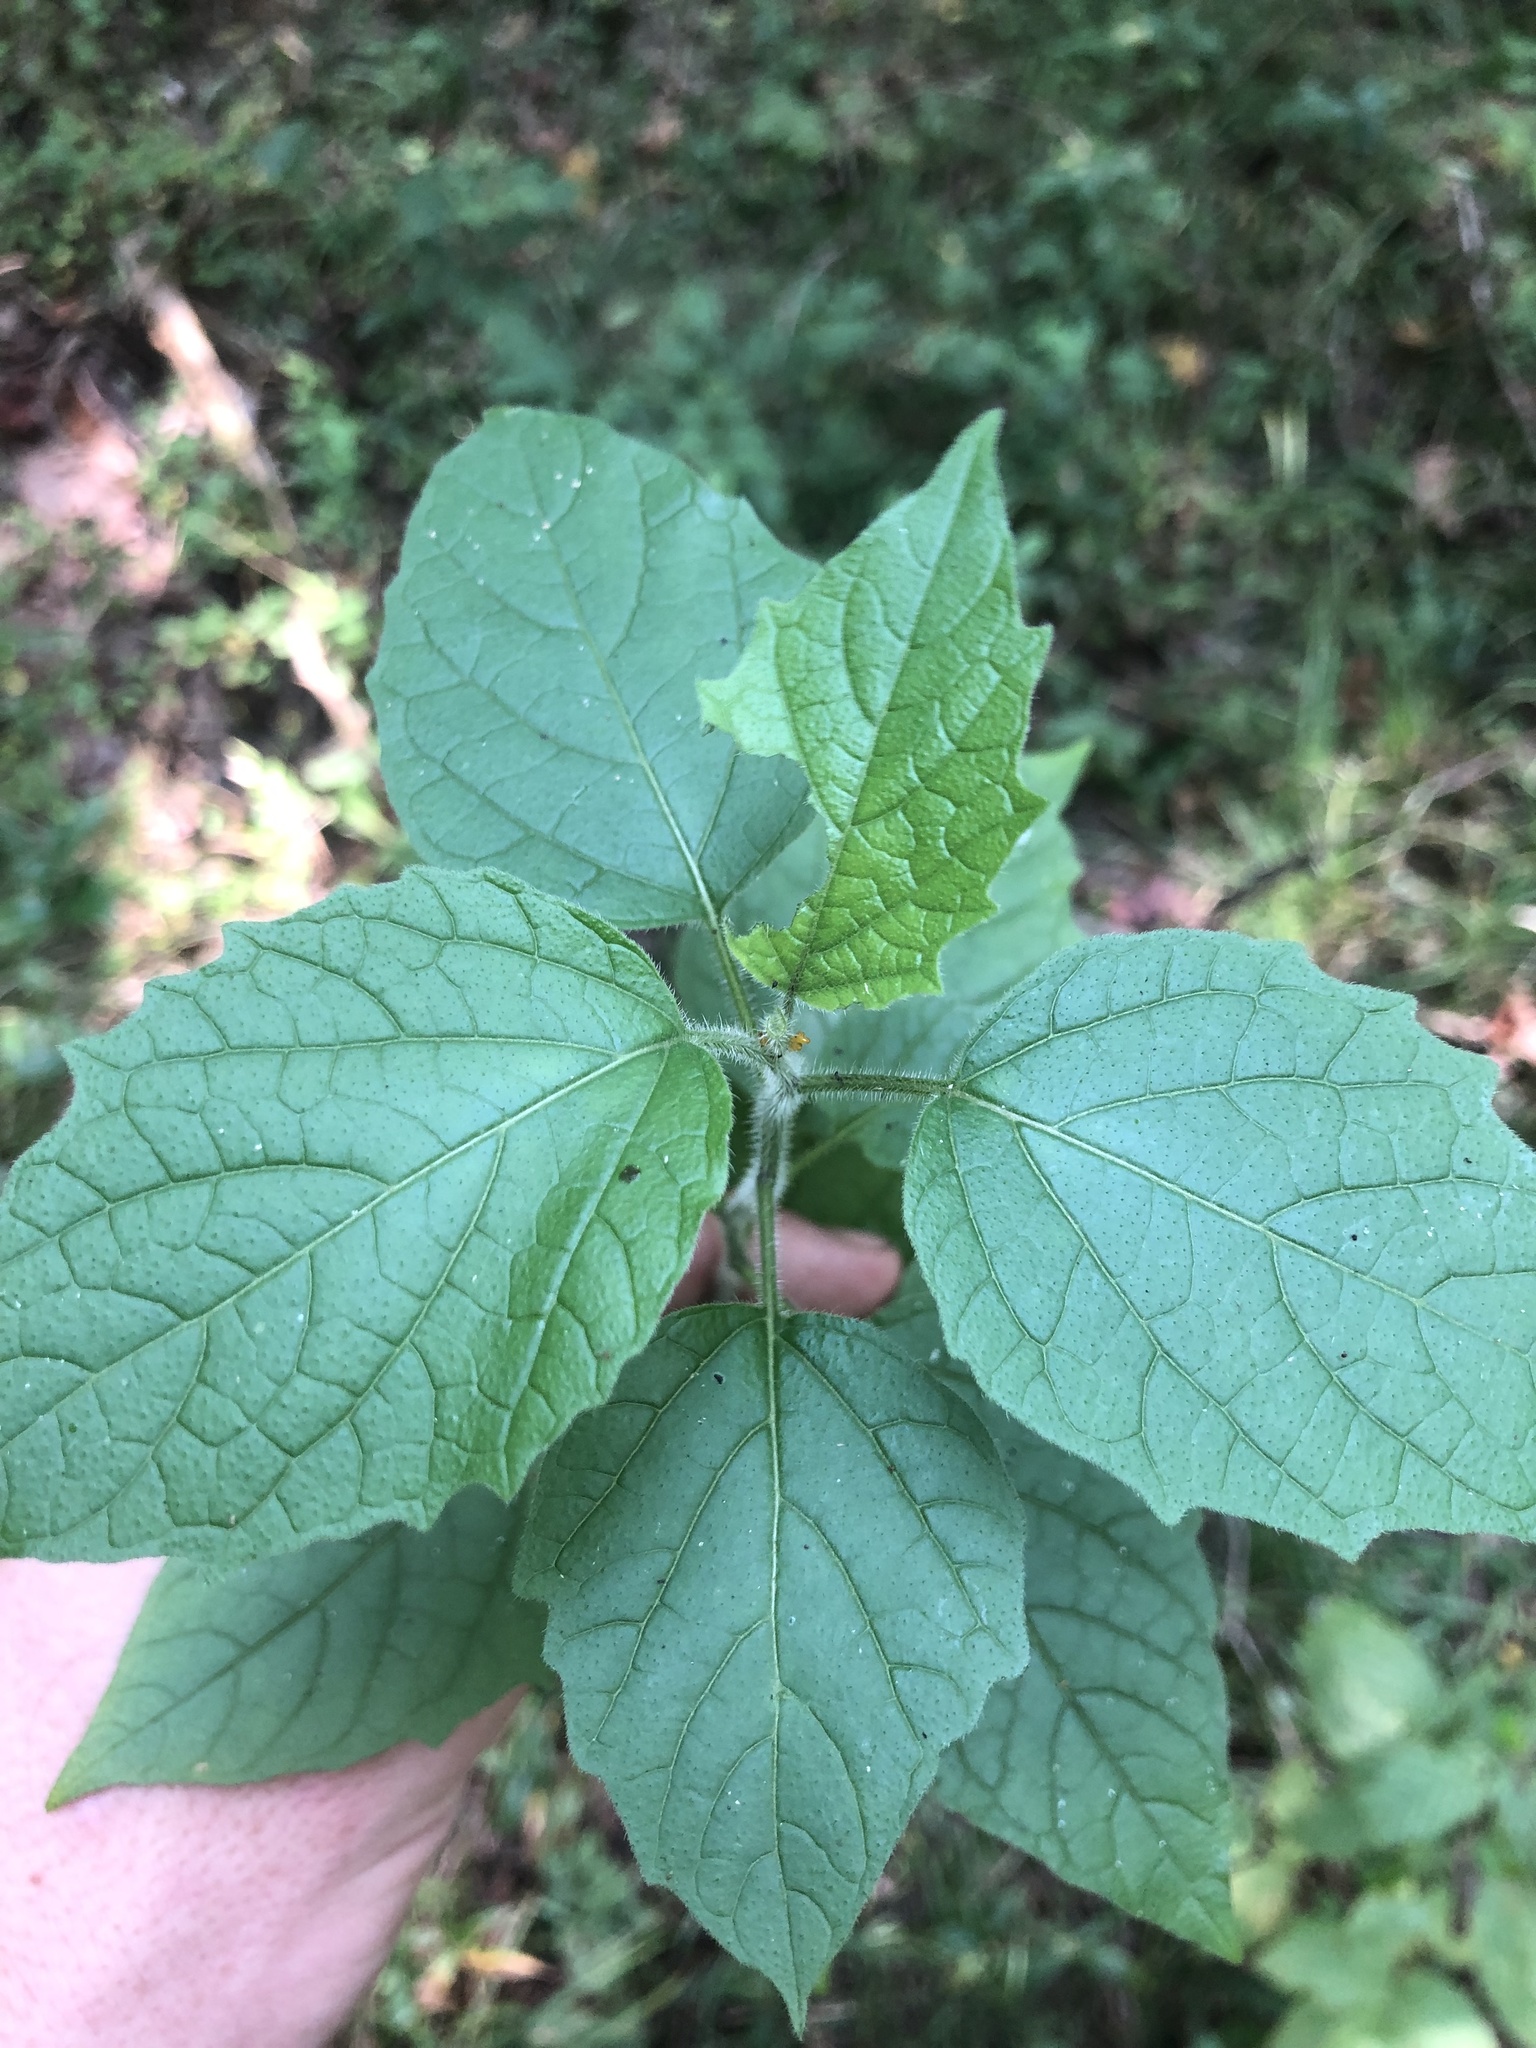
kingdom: Plantae
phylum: Tracheophyta
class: Magnoliopsida
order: Solanales
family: Solanaceae
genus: Physalis
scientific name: Physalis heterophylla
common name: Clammy ground-cherry
